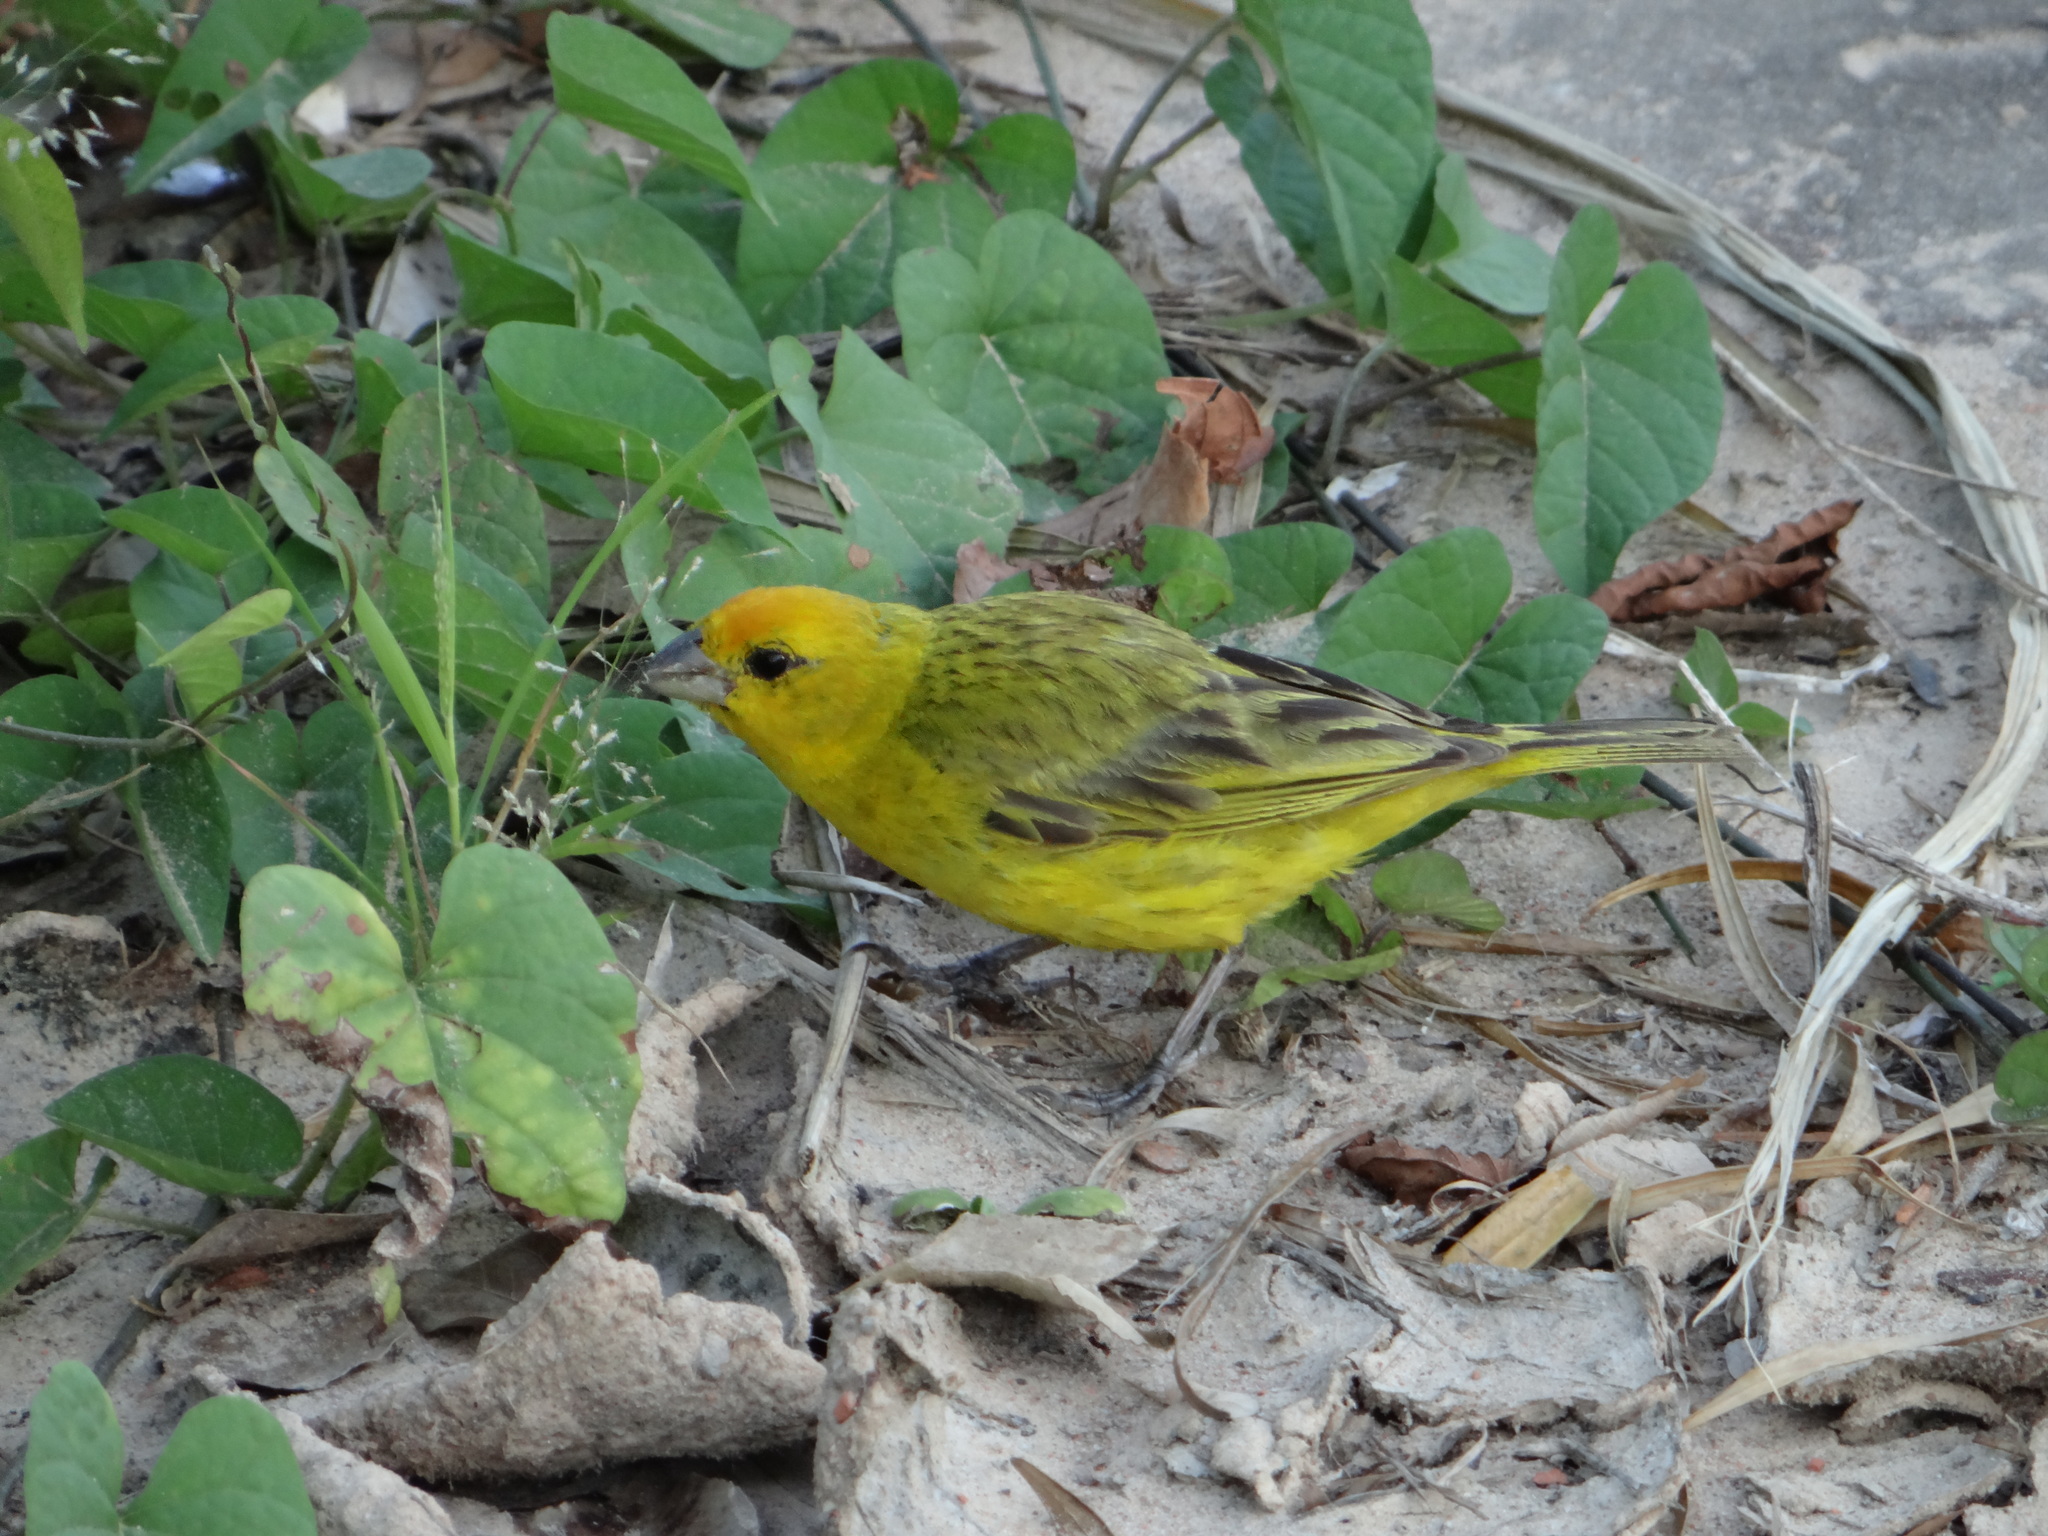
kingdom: Animalia
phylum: Chordata
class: Aves
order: Passeriformes
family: Thraupidae
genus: Sicalis
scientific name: Sicalis flaveola
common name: Saffron finch
